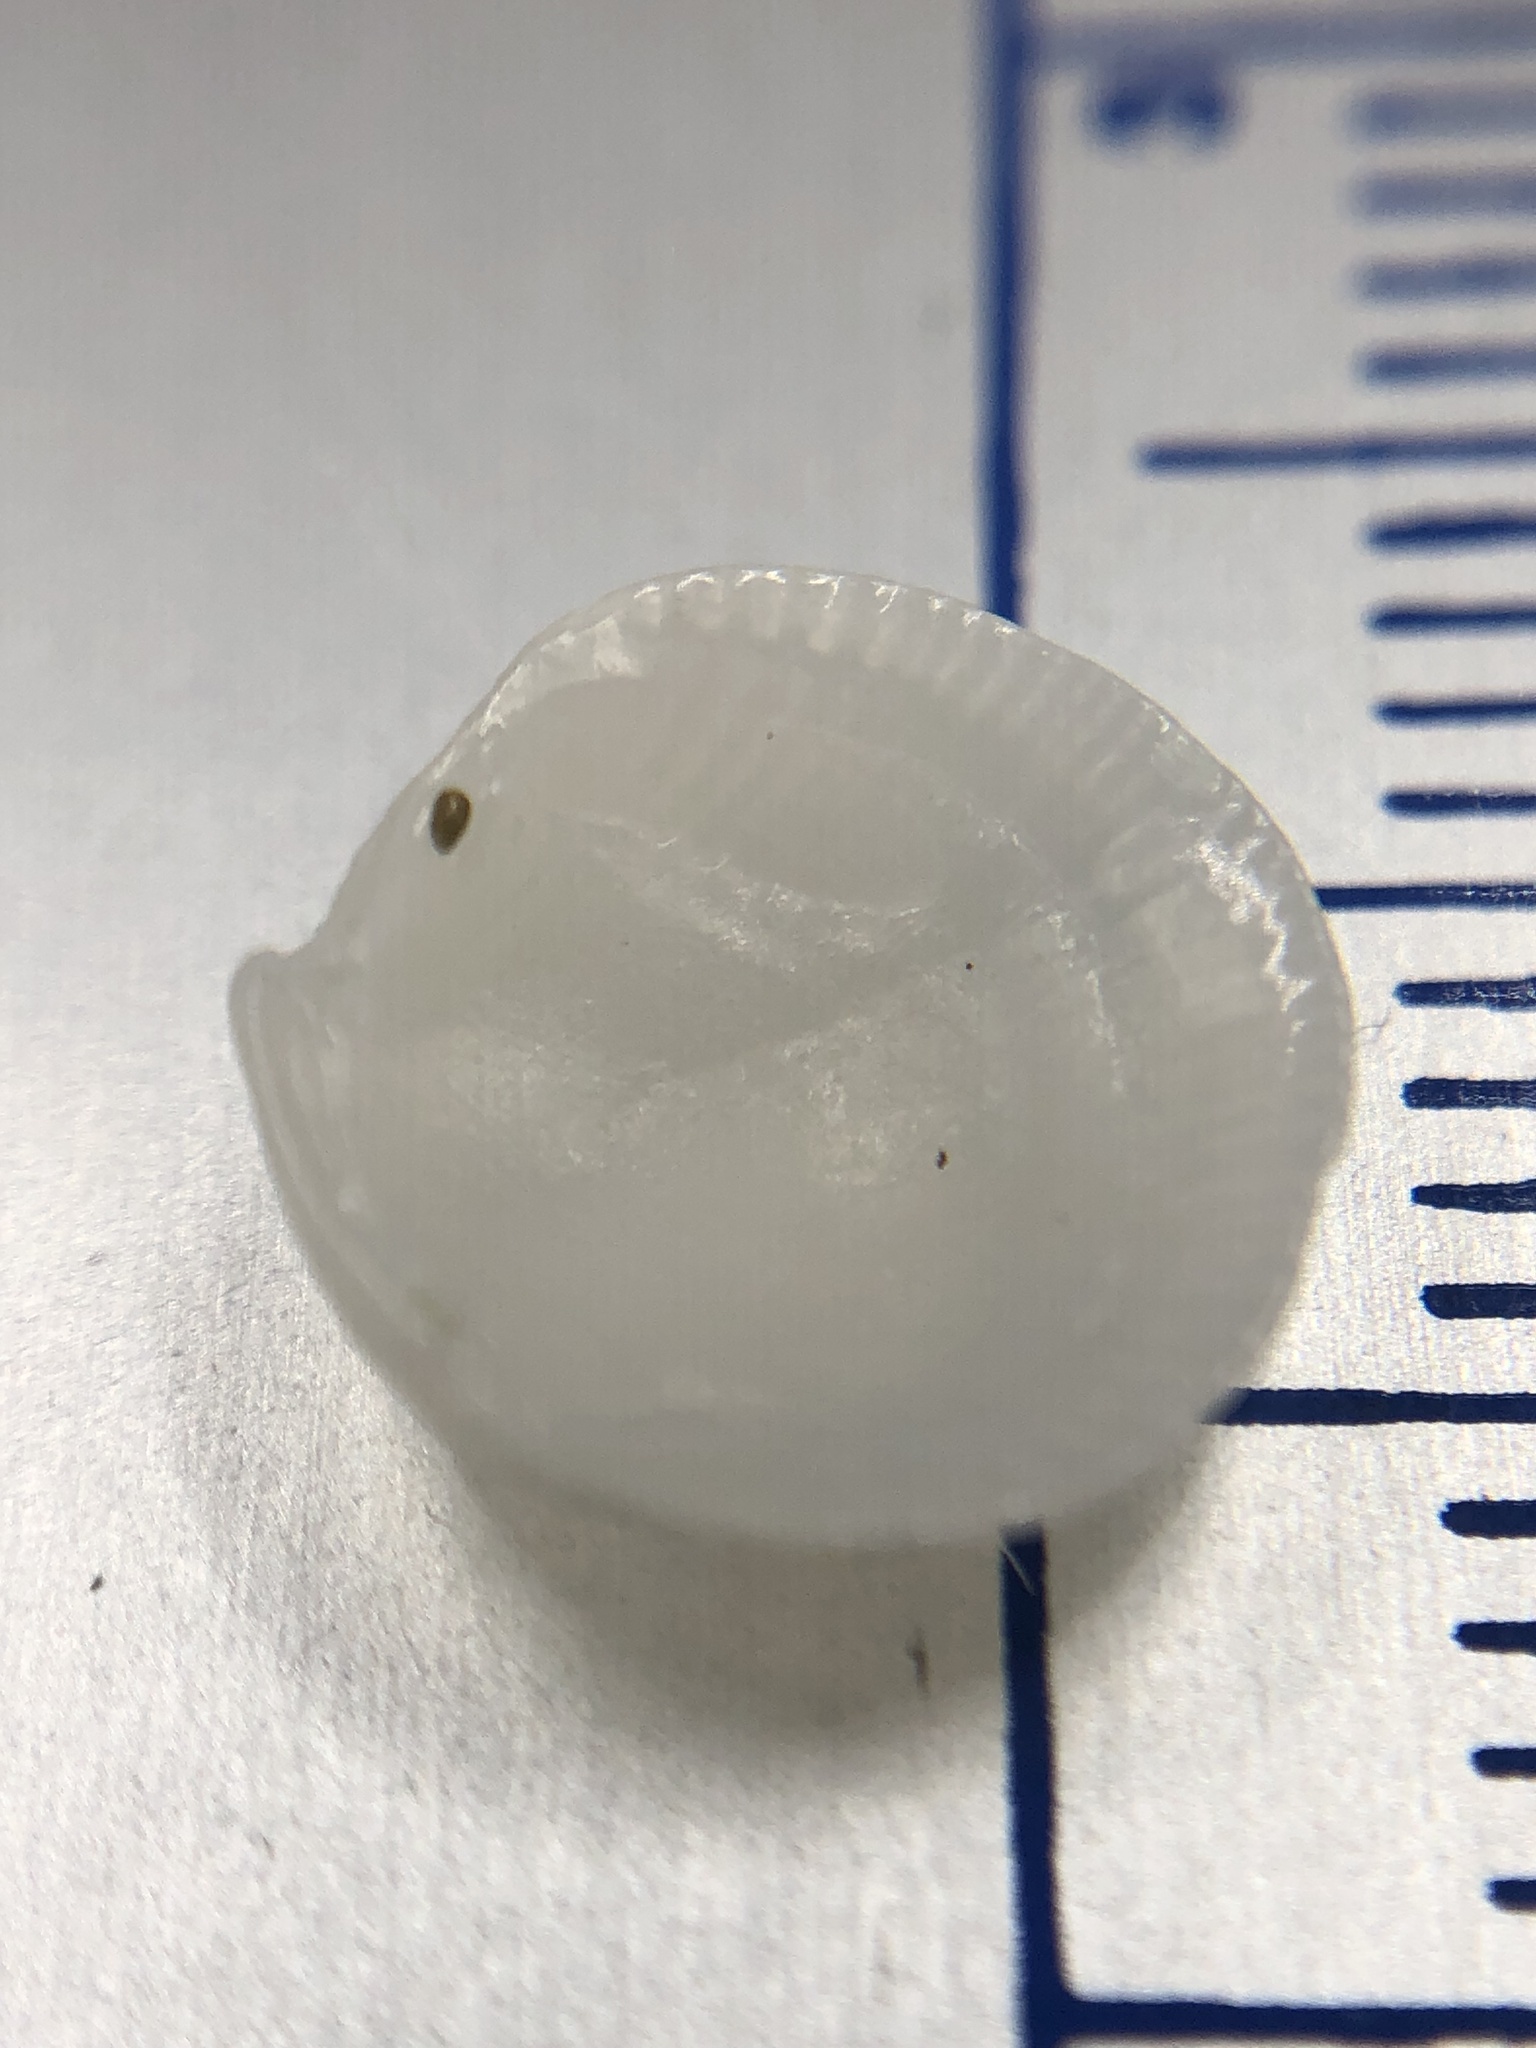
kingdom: Animalia
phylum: Mollusca
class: Bivalvia
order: Lucinida
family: Lucinidae
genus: Lucinisca
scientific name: Lucinisca nassula
